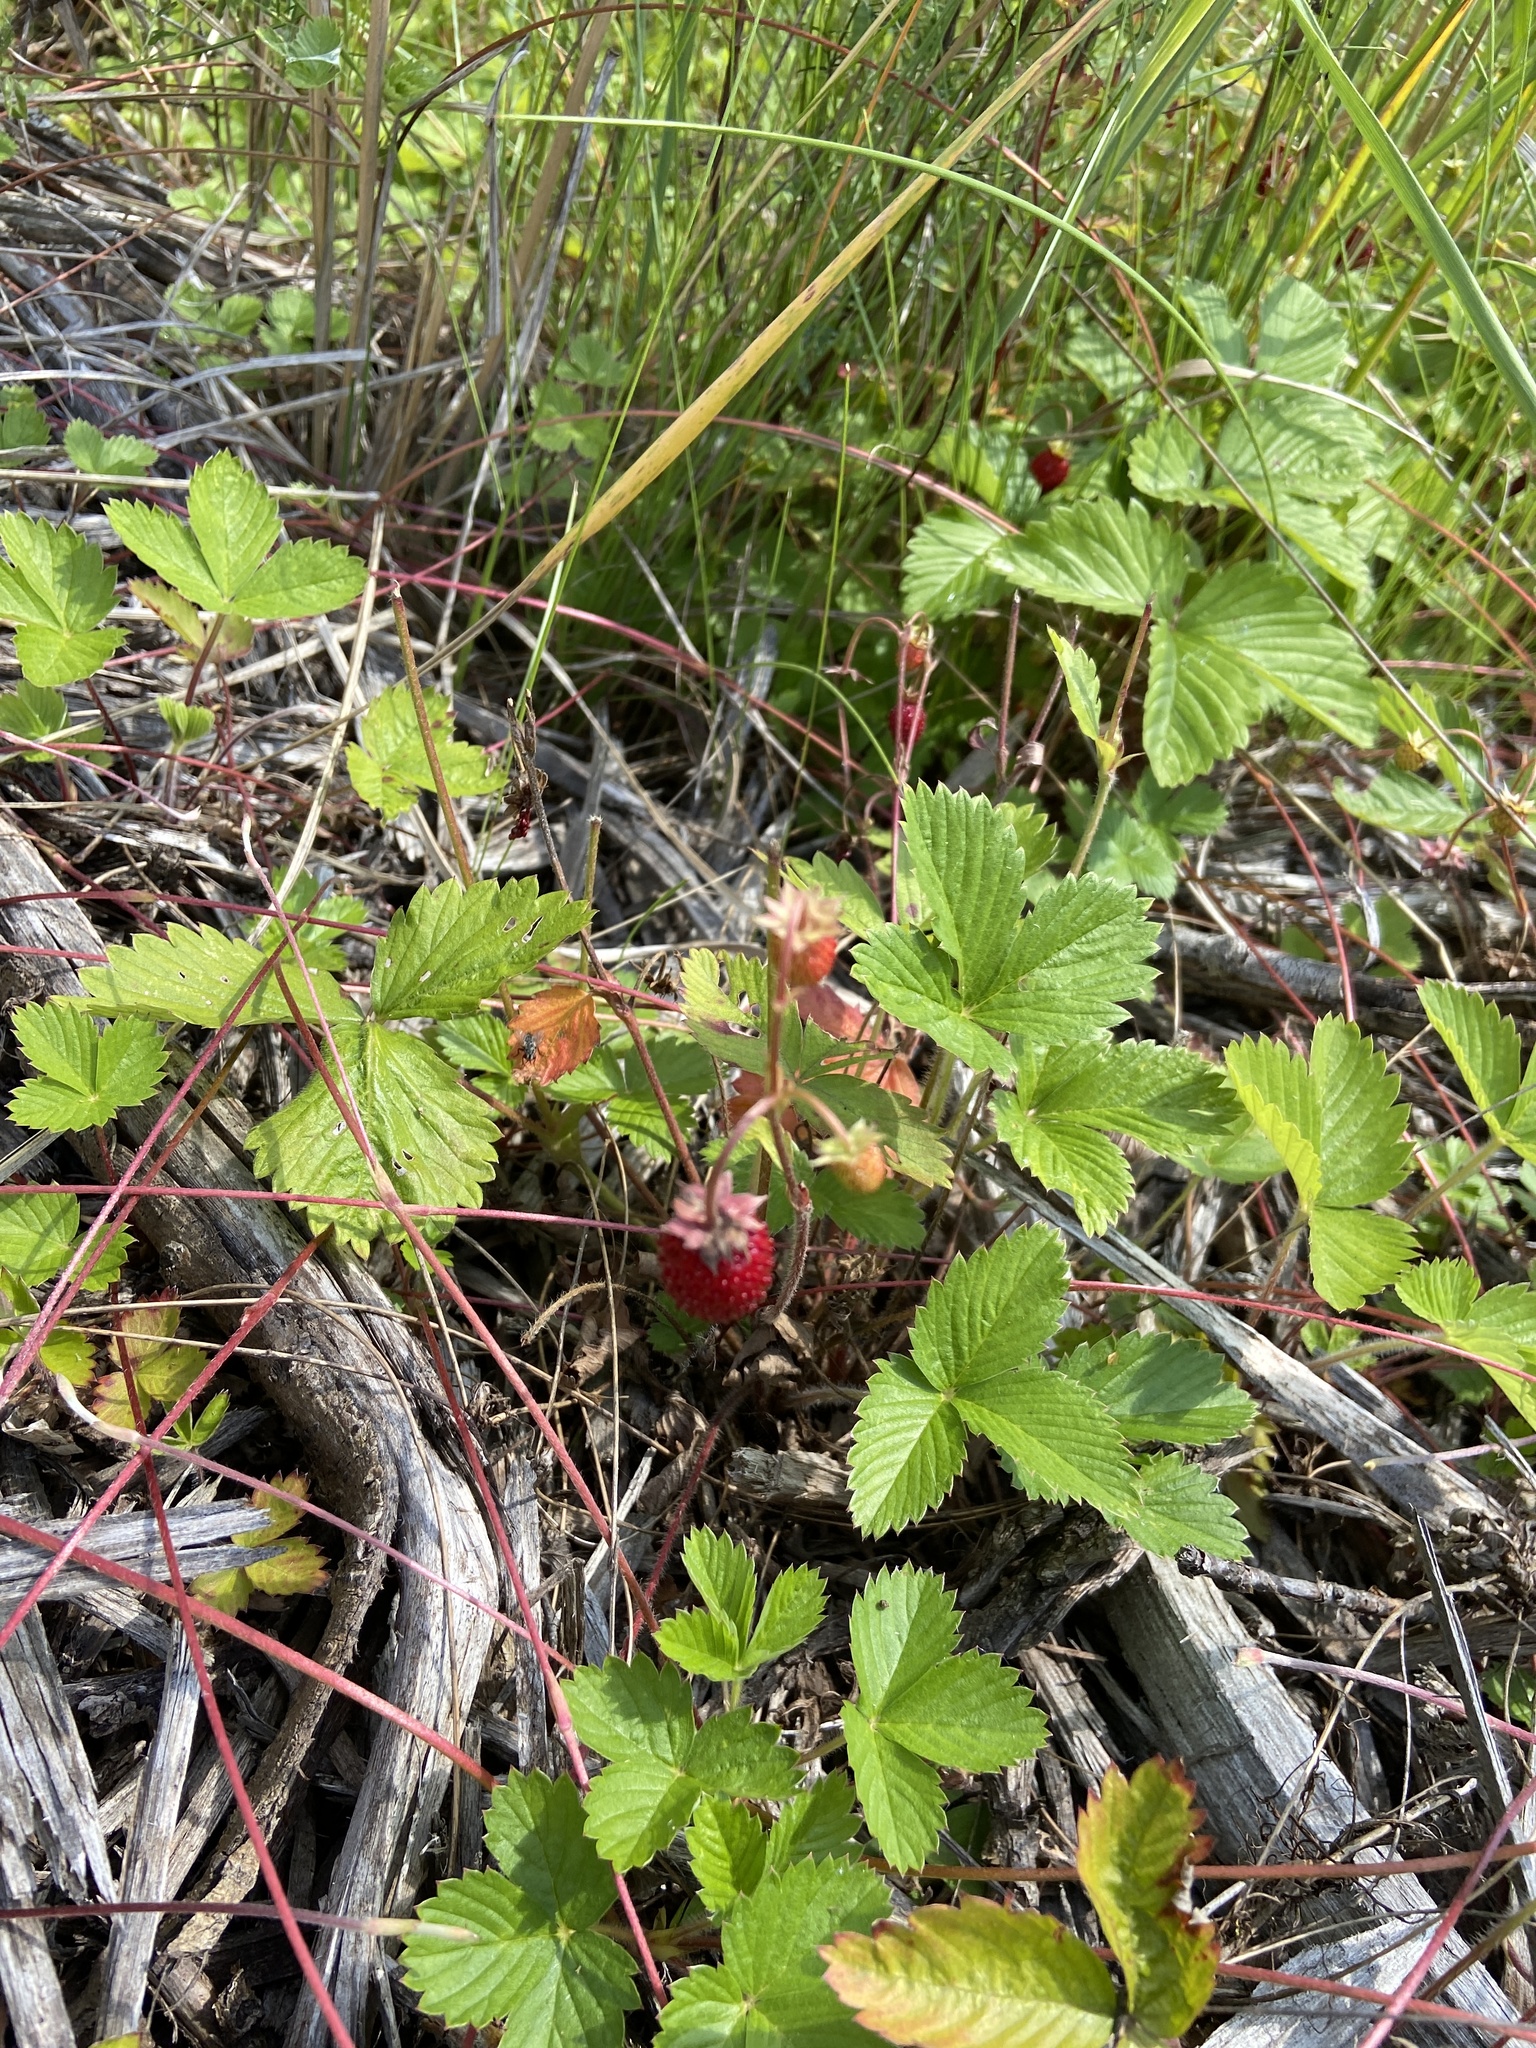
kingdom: Plantae
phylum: Tracheophyta
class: Magnoliopsida
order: Rosales
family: Rosaceae
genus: Fragaria
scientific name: Fragaria vesca
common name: Wild strawberry
